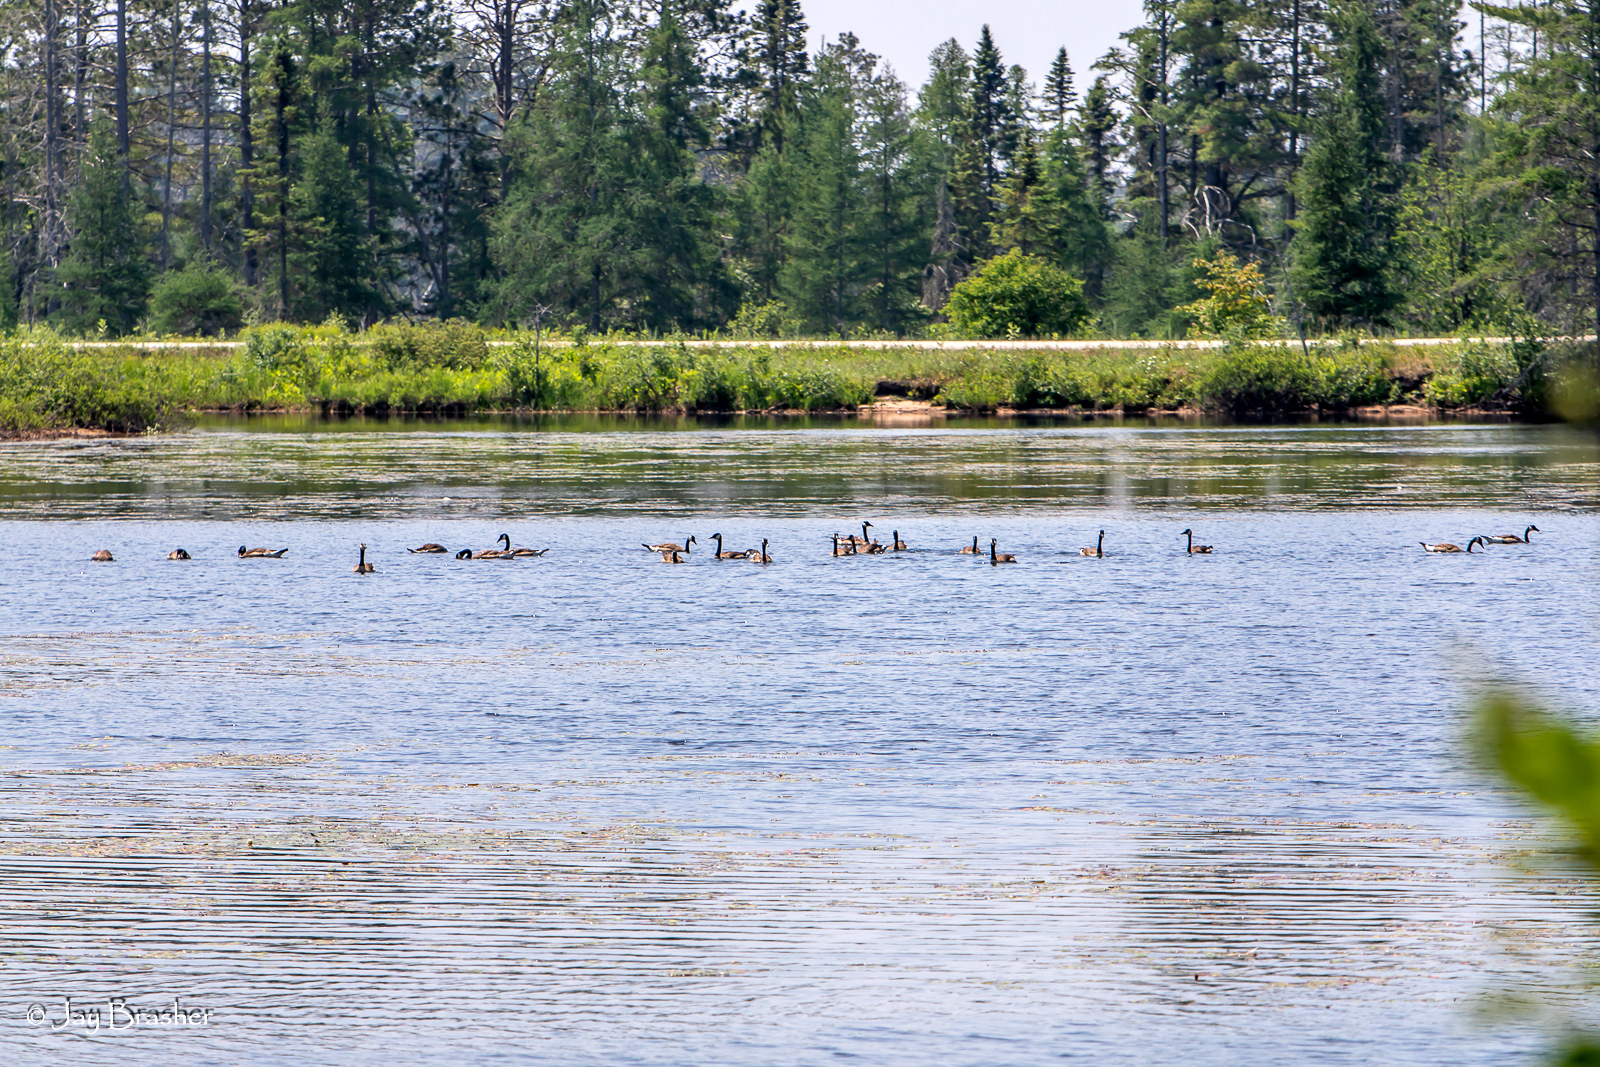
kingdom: Animalia
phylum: Chordata
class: Aves
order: Anseriformes
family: Anatidae
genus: Branta
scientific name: Branta canadensis
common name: Canada goose
